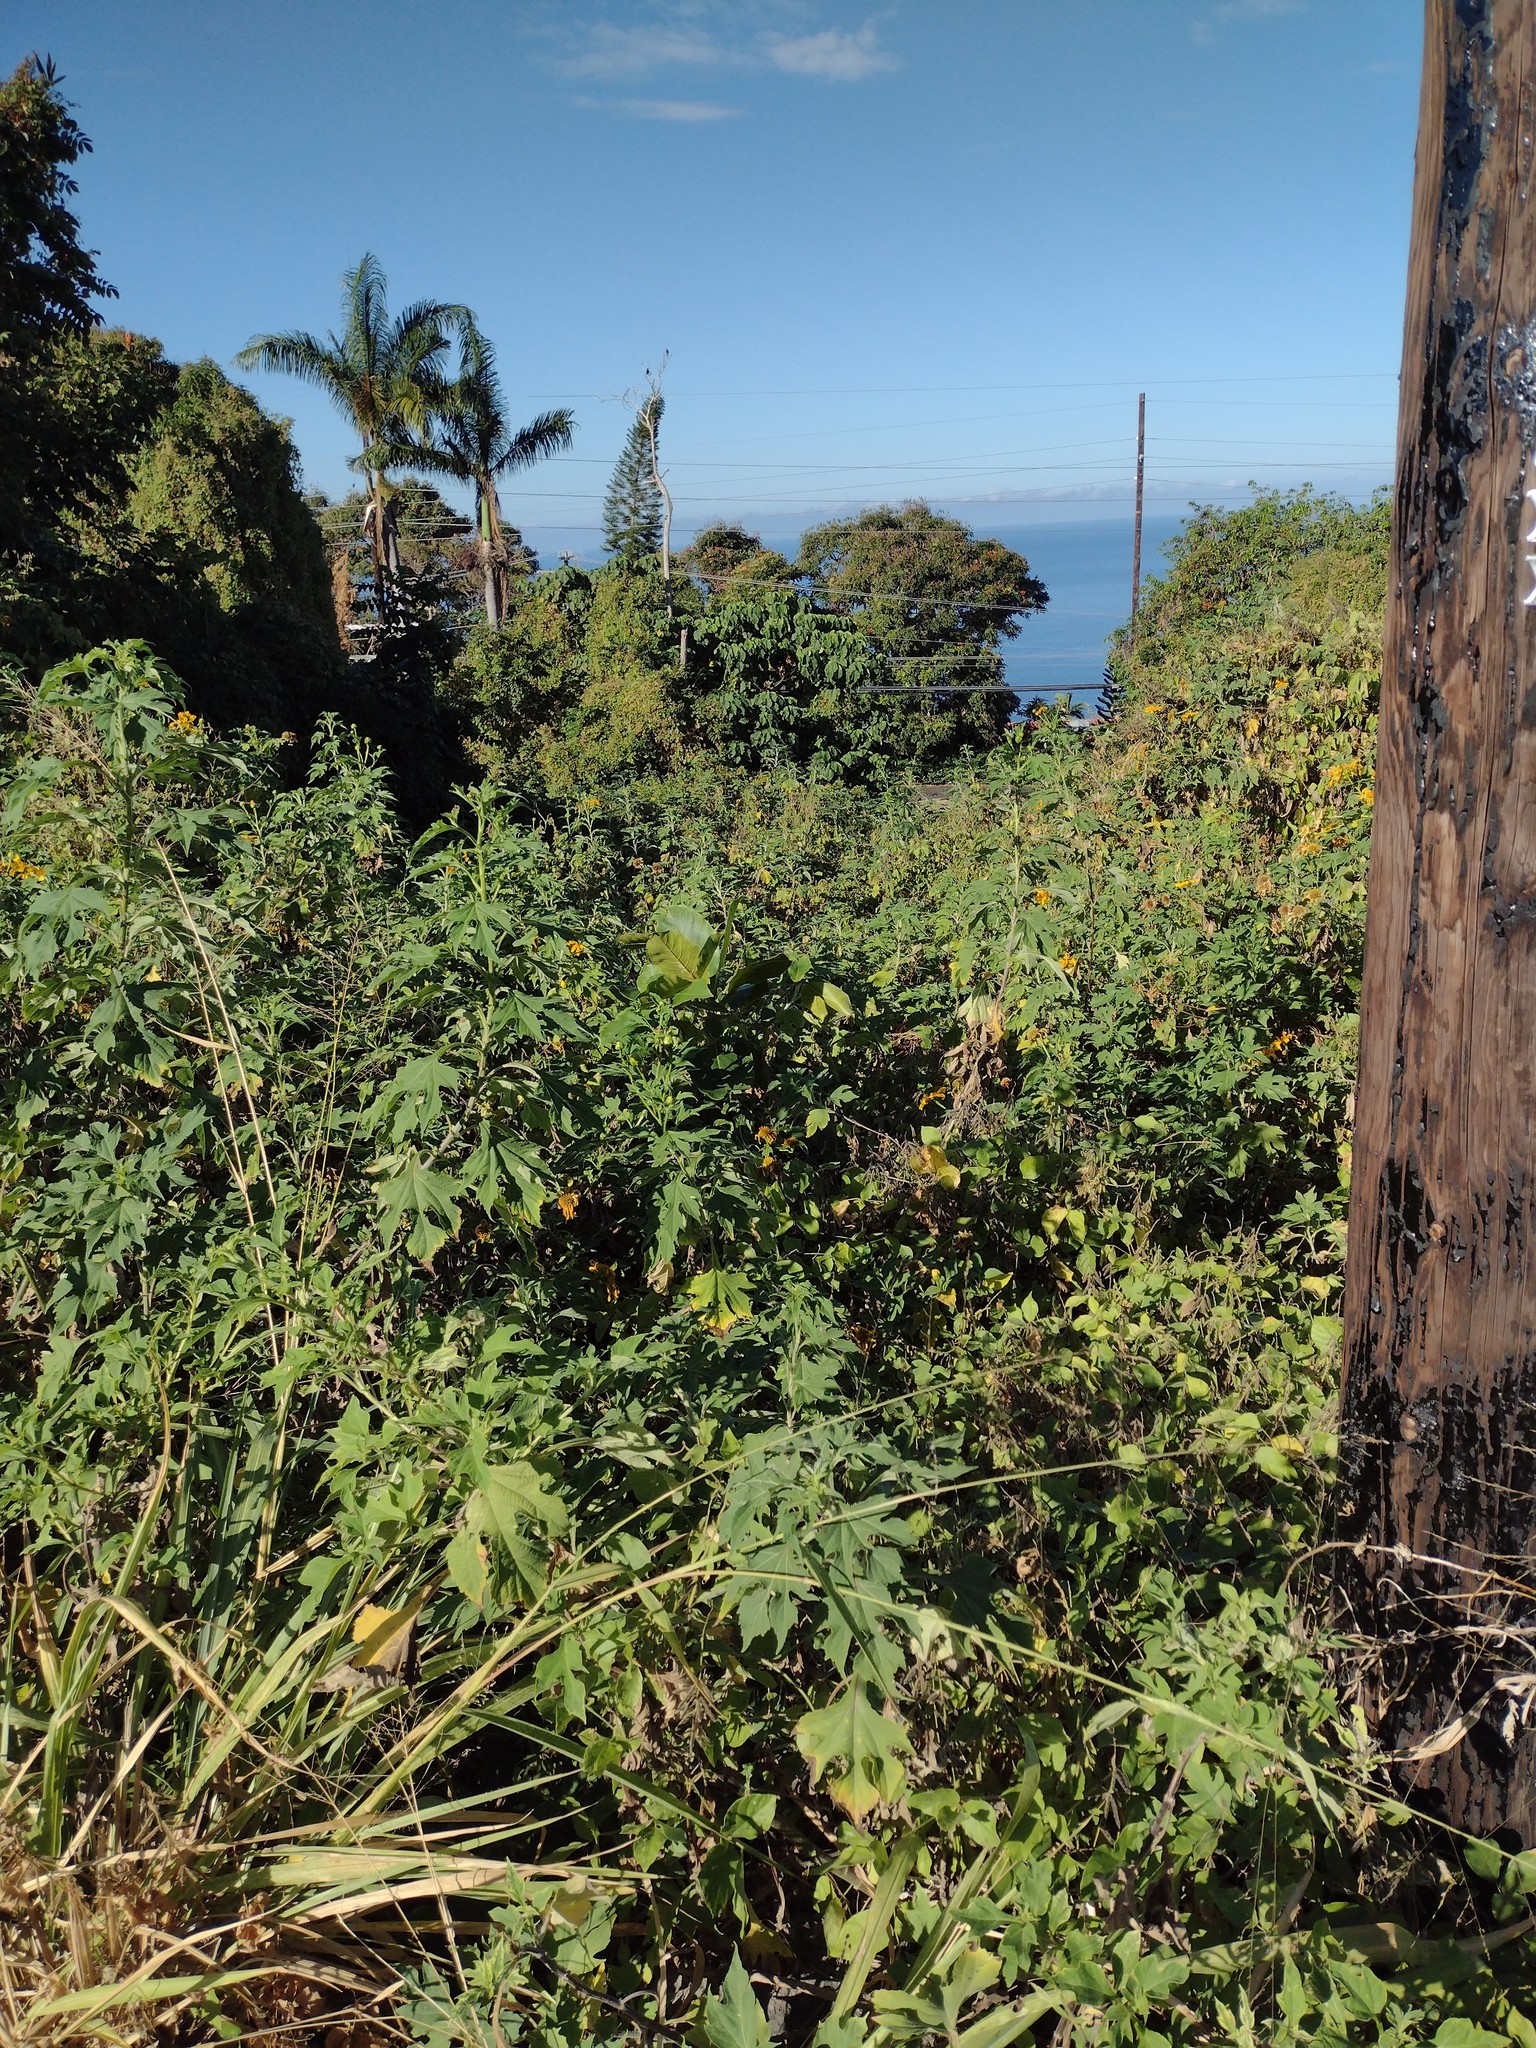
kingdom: Plantae
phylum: Tracheophyta
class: Magnoliopsida
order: Asterales
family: Asteraceae
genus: Tithonia
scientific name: Tithonia diversifolia
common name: Tree marigold
